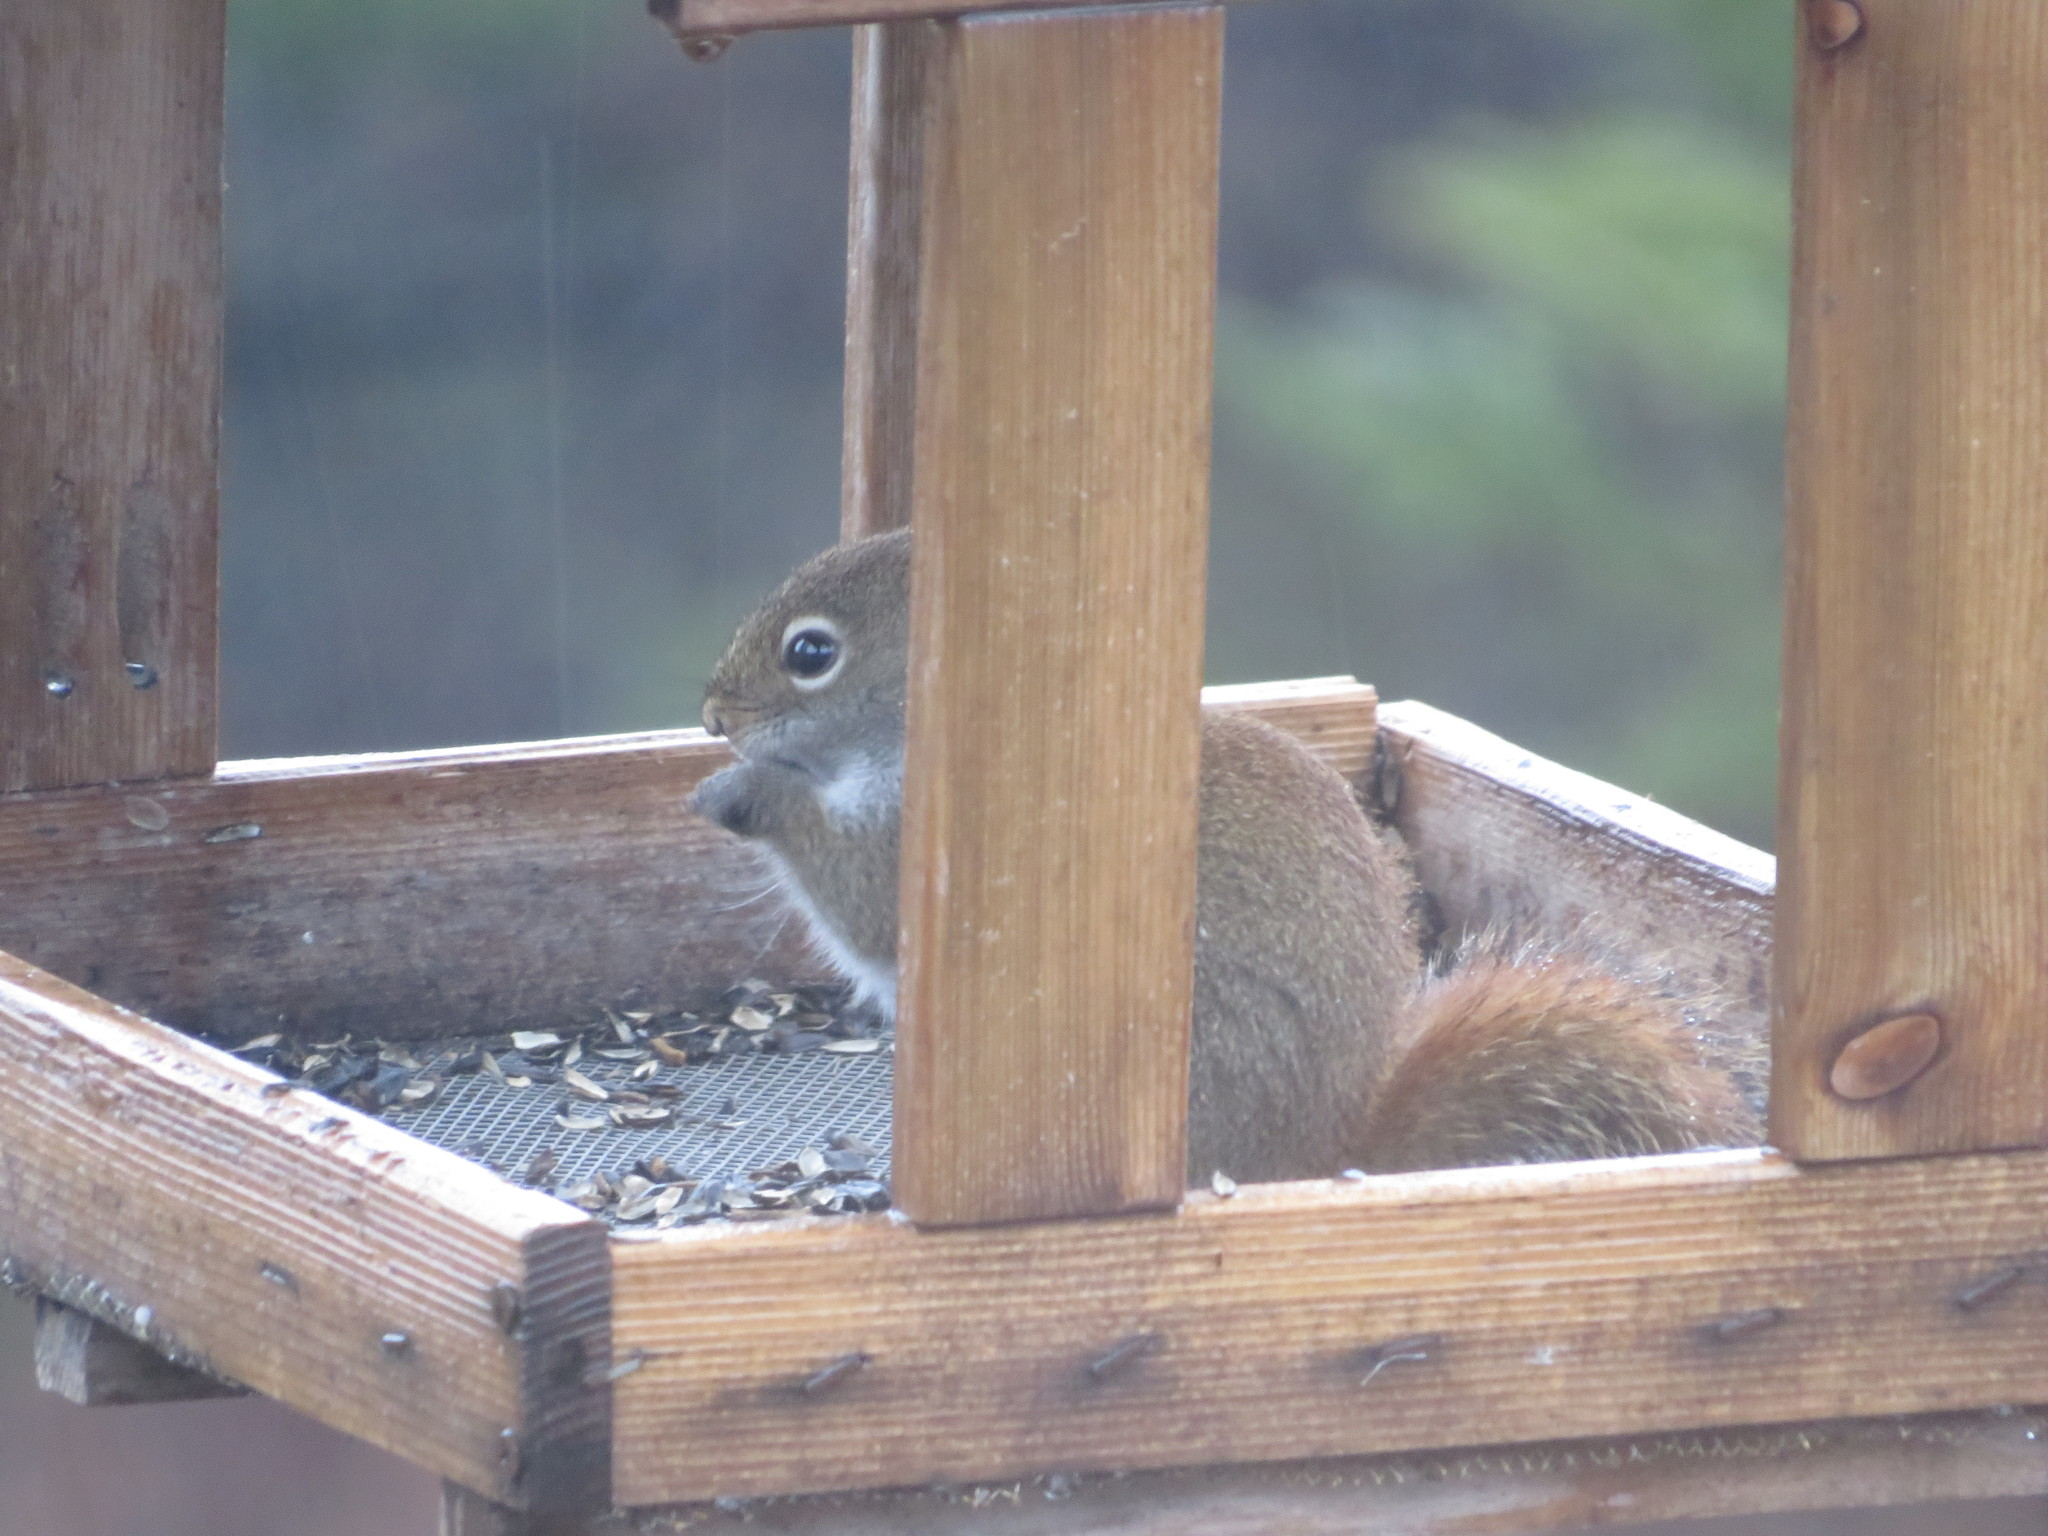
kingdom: Animalia
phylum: Chordata
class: Mammalia
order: Rodentia
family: Sciuridae
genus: Tamiasciurus
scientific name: Tamiasciurus hudsonicus
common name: Red squirrel
